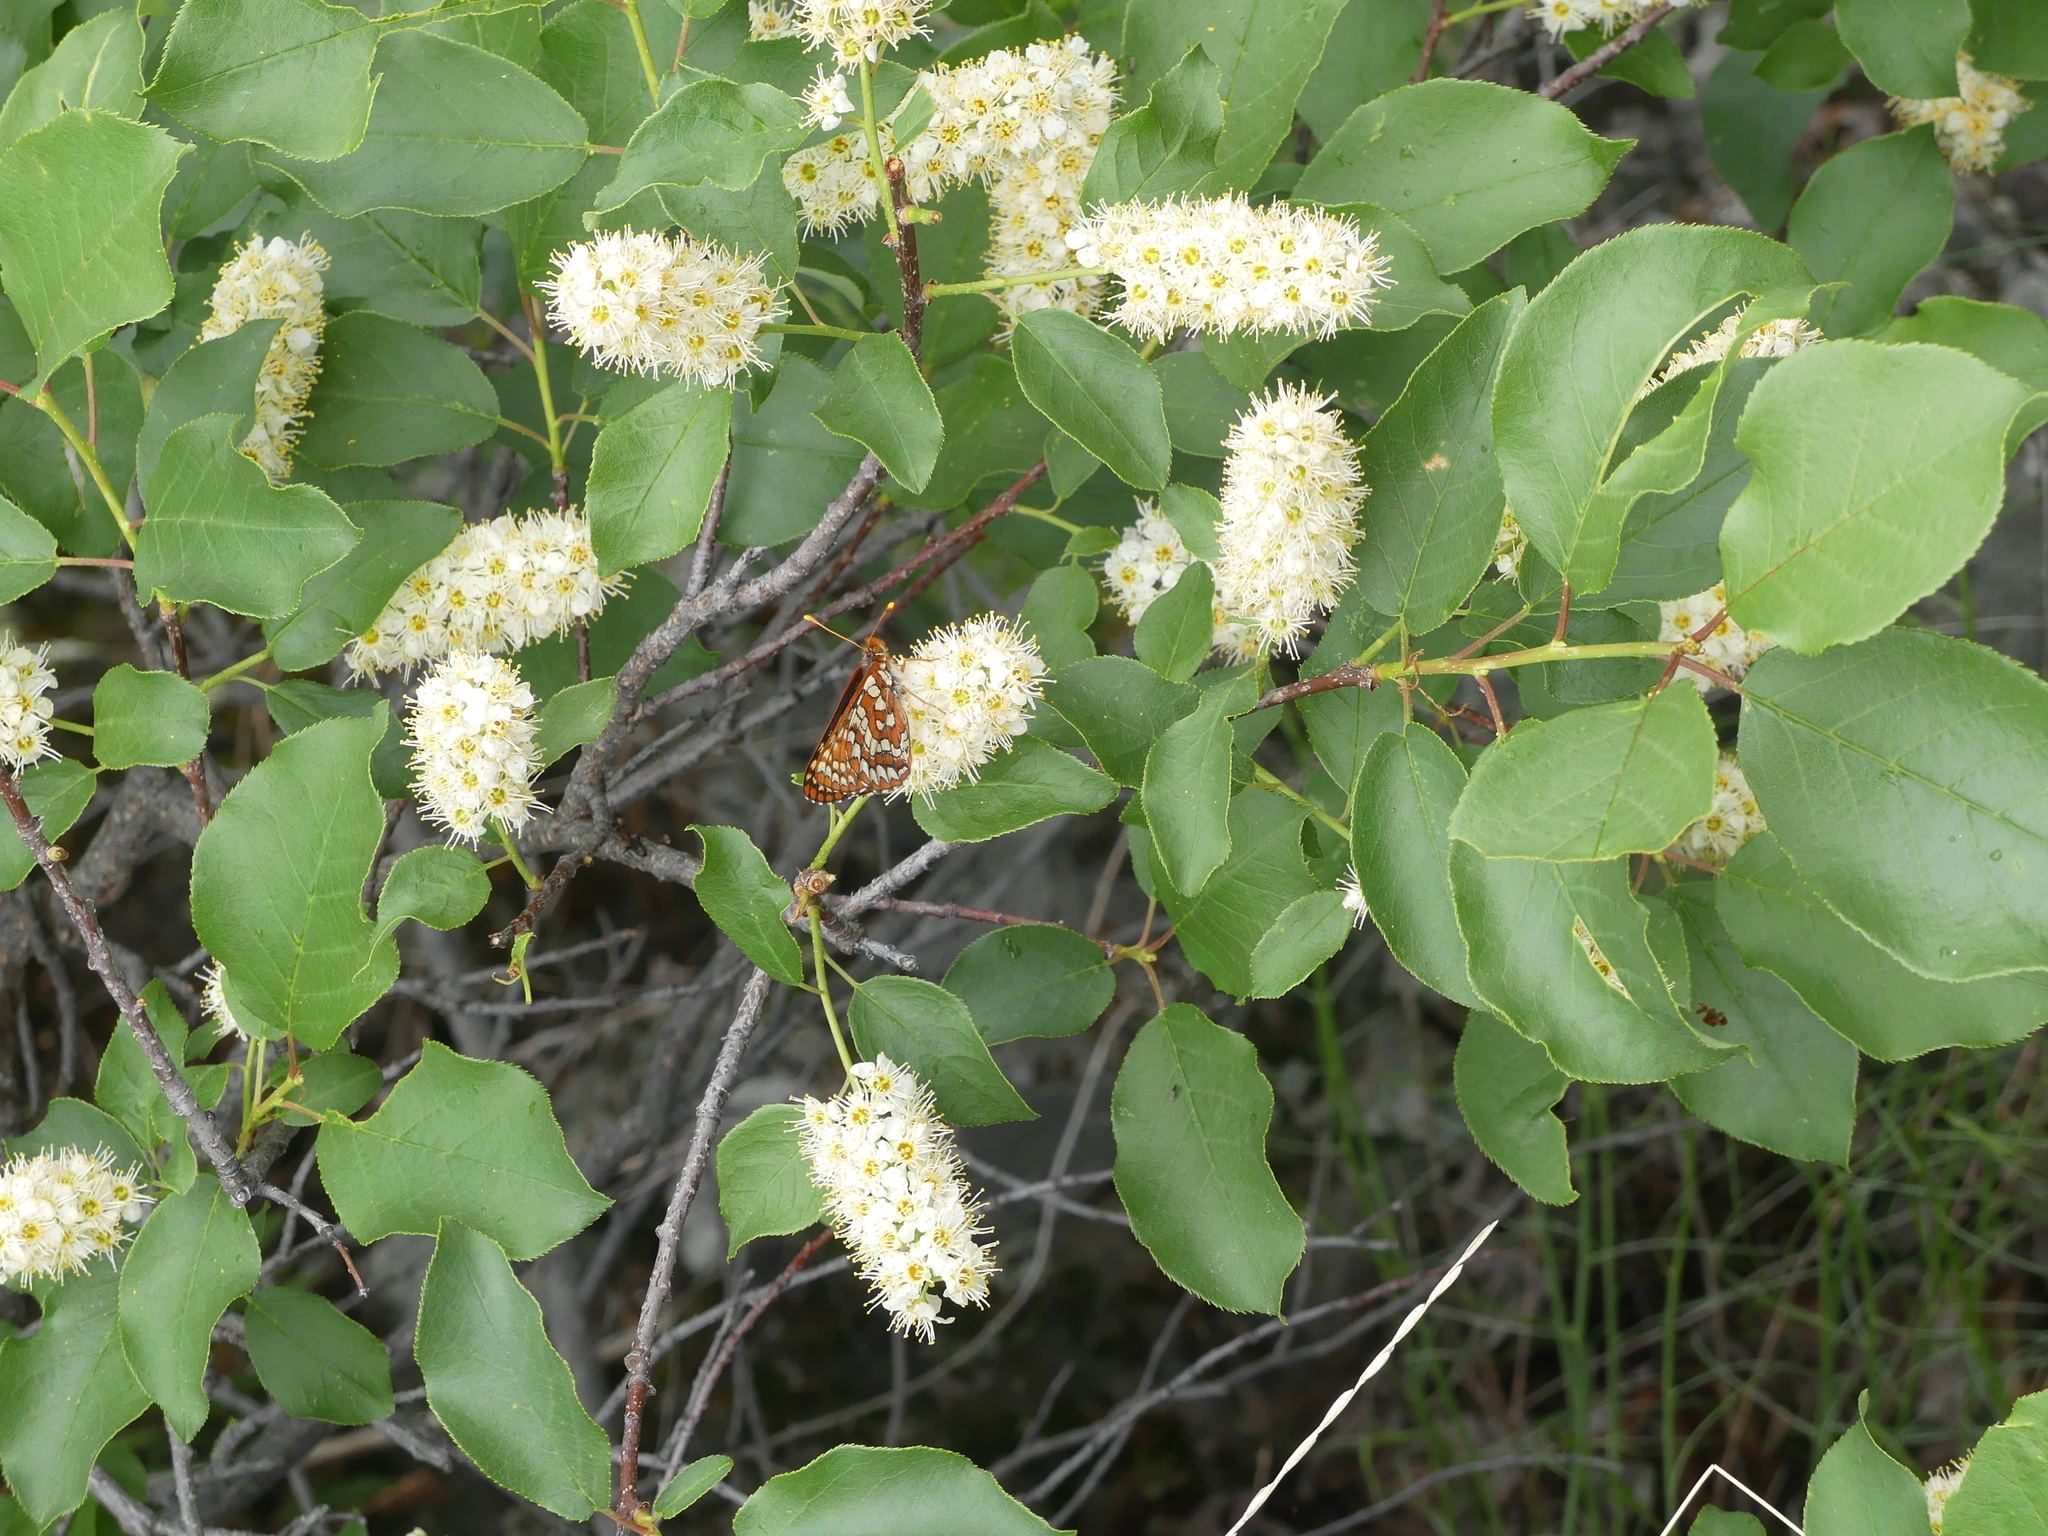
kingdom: Animalia
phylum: Arthropoda
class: Insecta
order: Lepidoptera
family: Nymphalidae
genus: Occidryas
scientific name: Occidryas anicia
